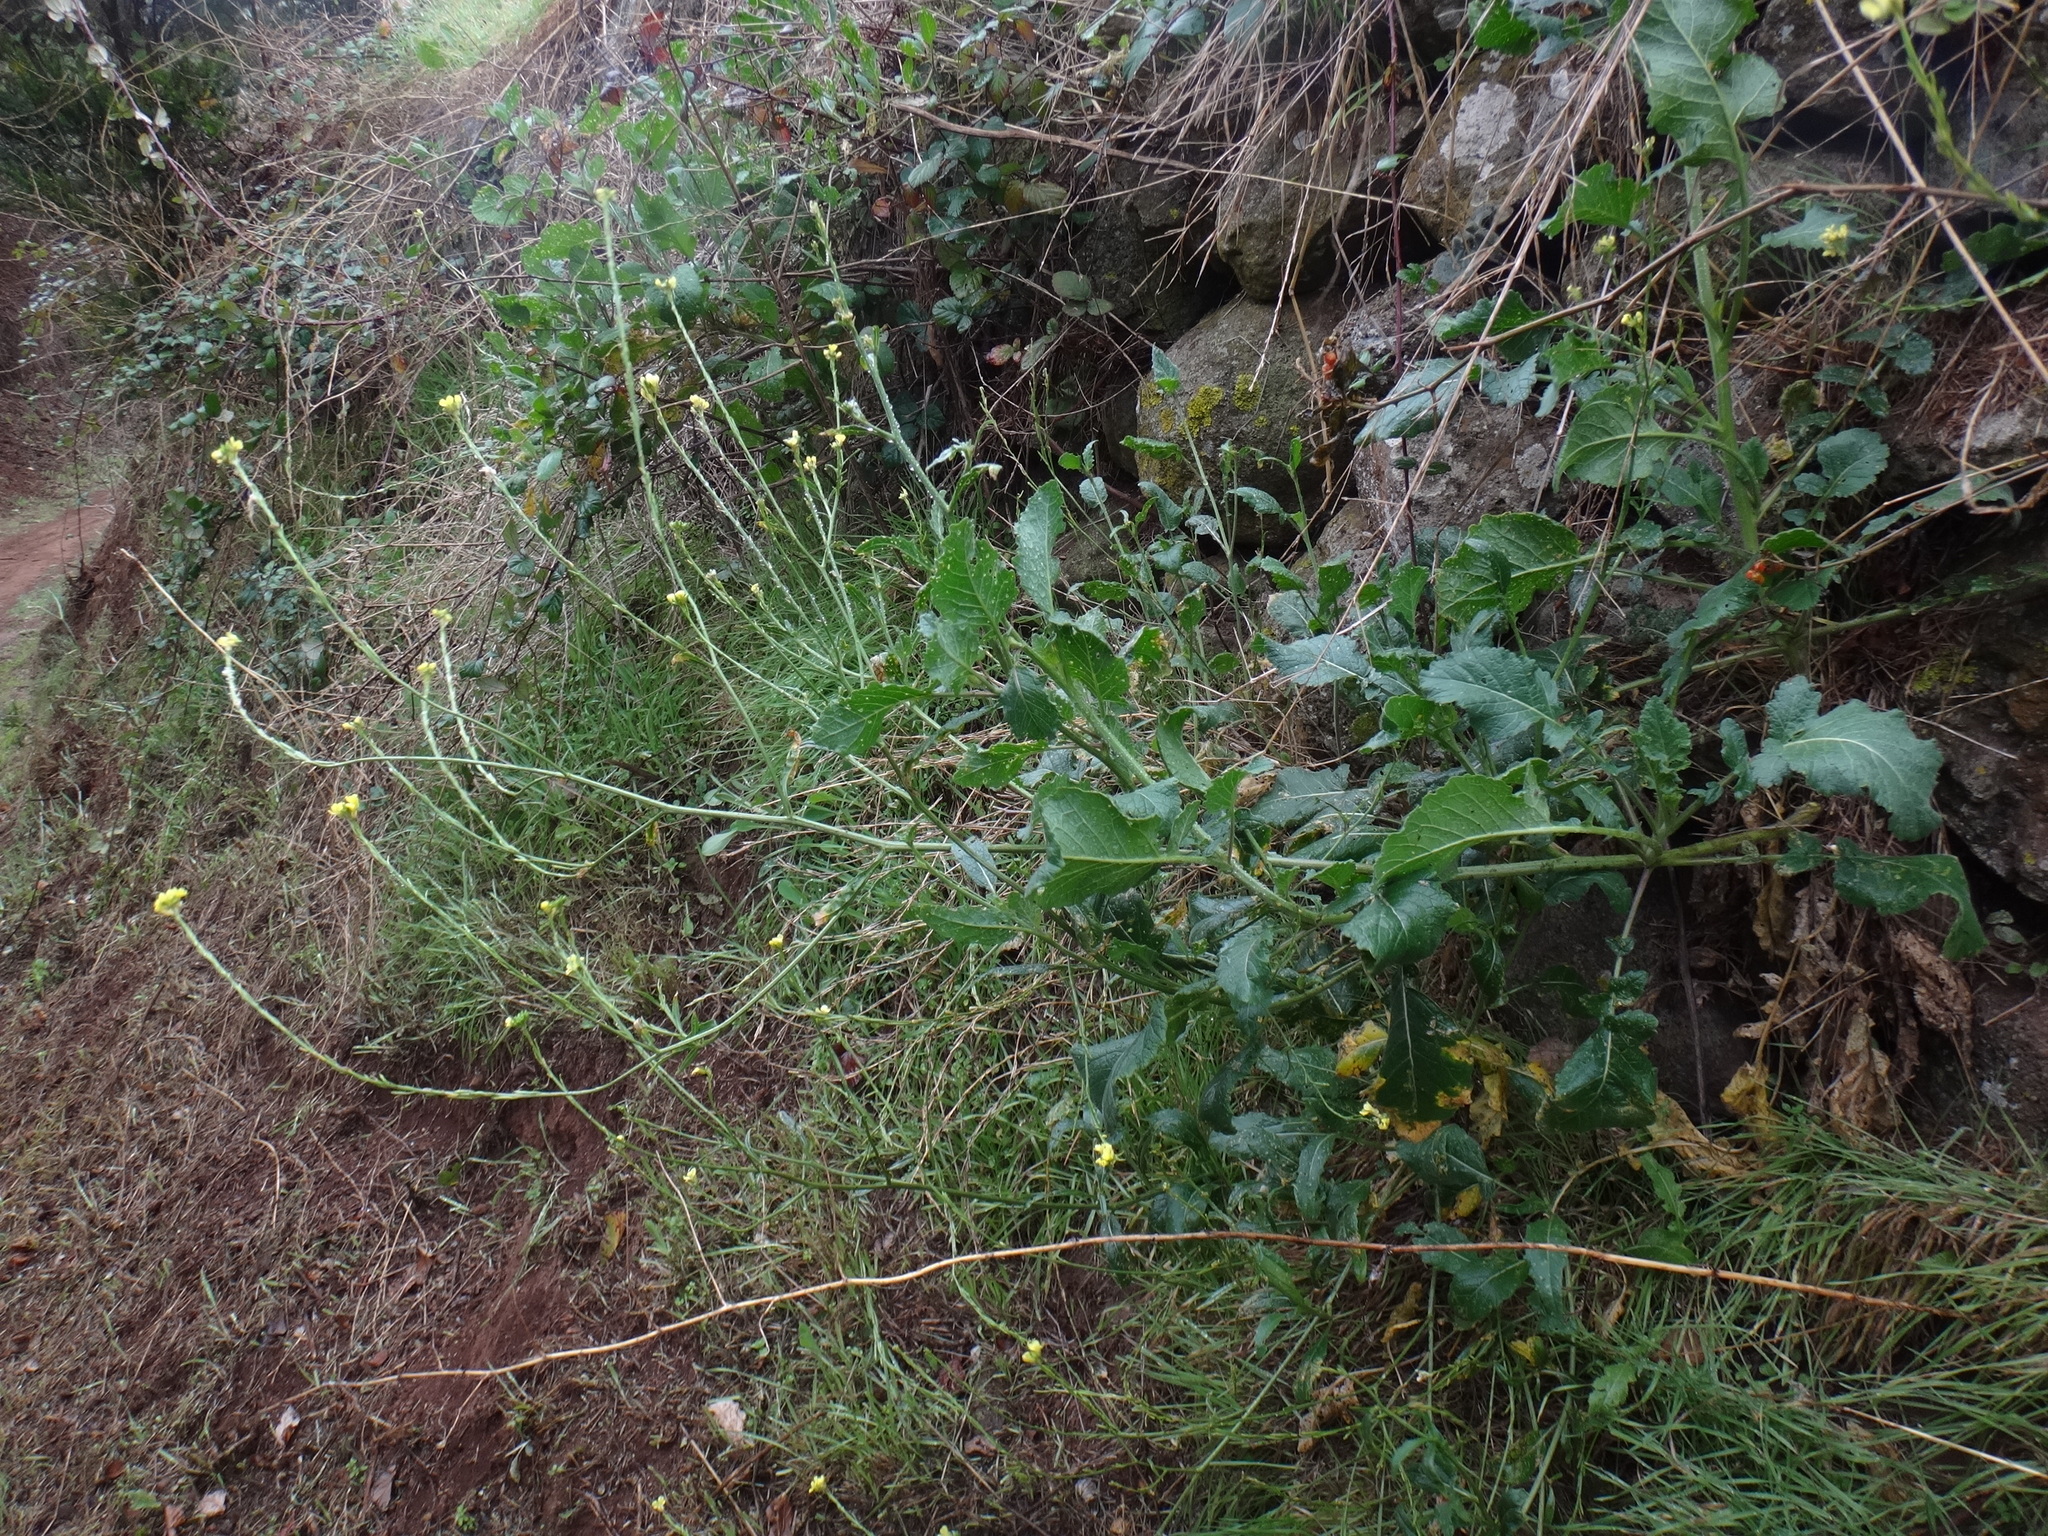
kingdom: Plantae
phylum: Tracheophyta
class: Magnoliopsida
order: Brassicales
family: Brassicaceae
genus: Hirschfeldia
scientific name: Hirschfeldia incana
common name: Hoary mustard
